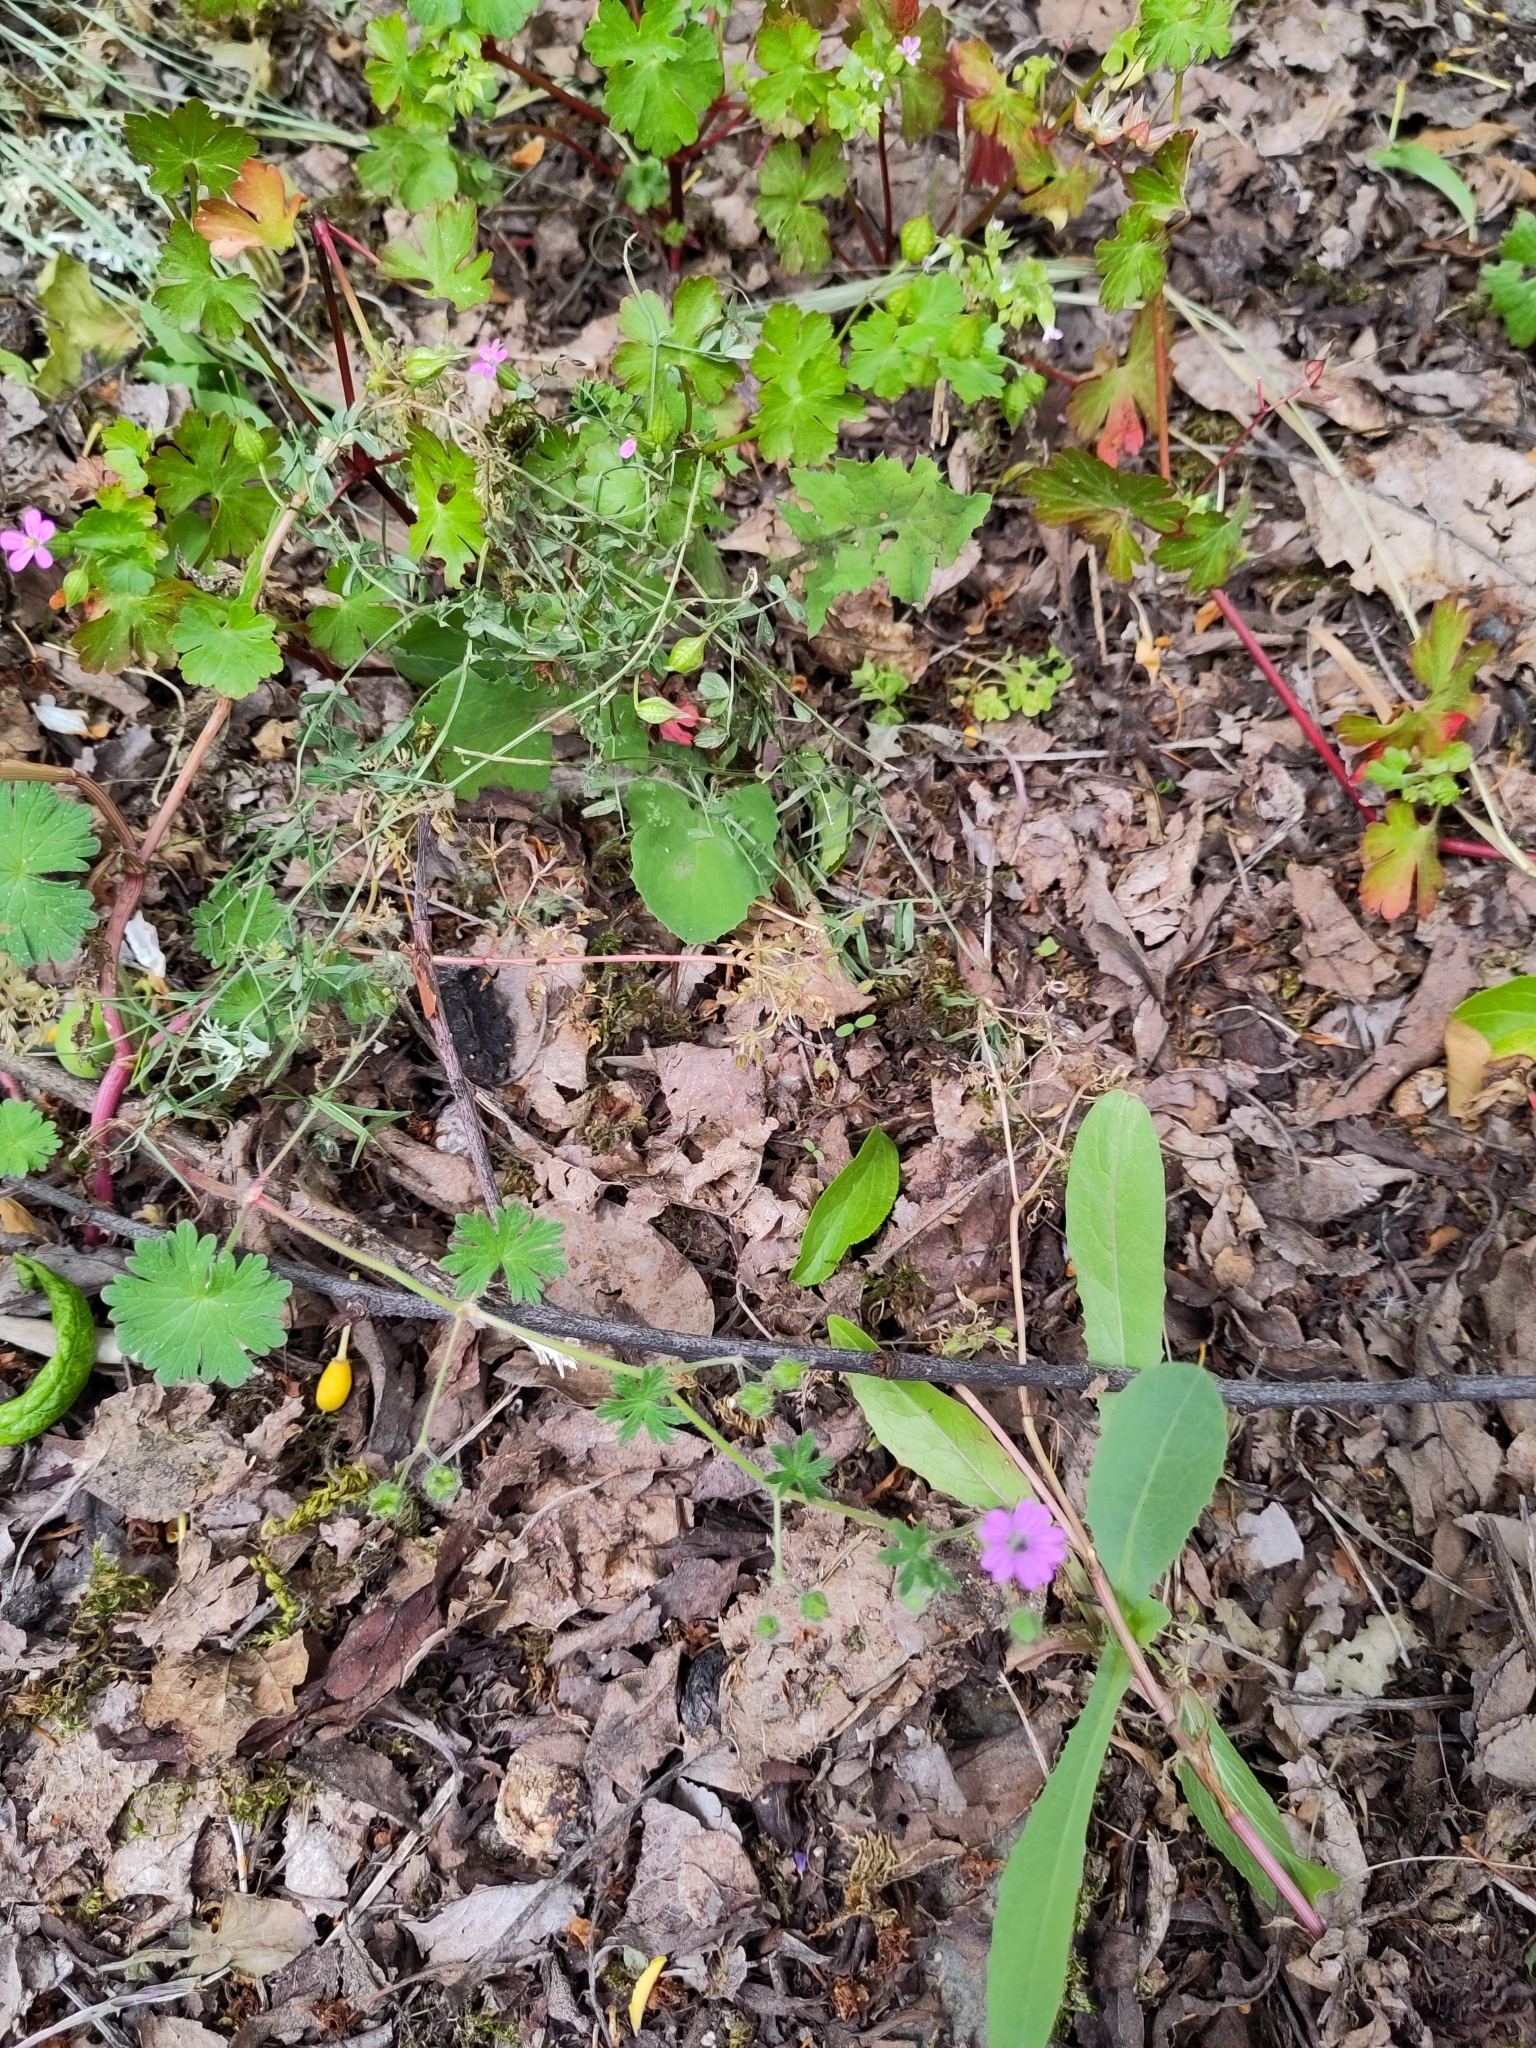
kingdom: Plantae
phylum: Tracheophyta
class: Magnoliopsida
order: Geraniales
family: Geraniaceae
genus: Geranium
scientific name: Geranium molle
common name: Dove's-foot crane's-bill
